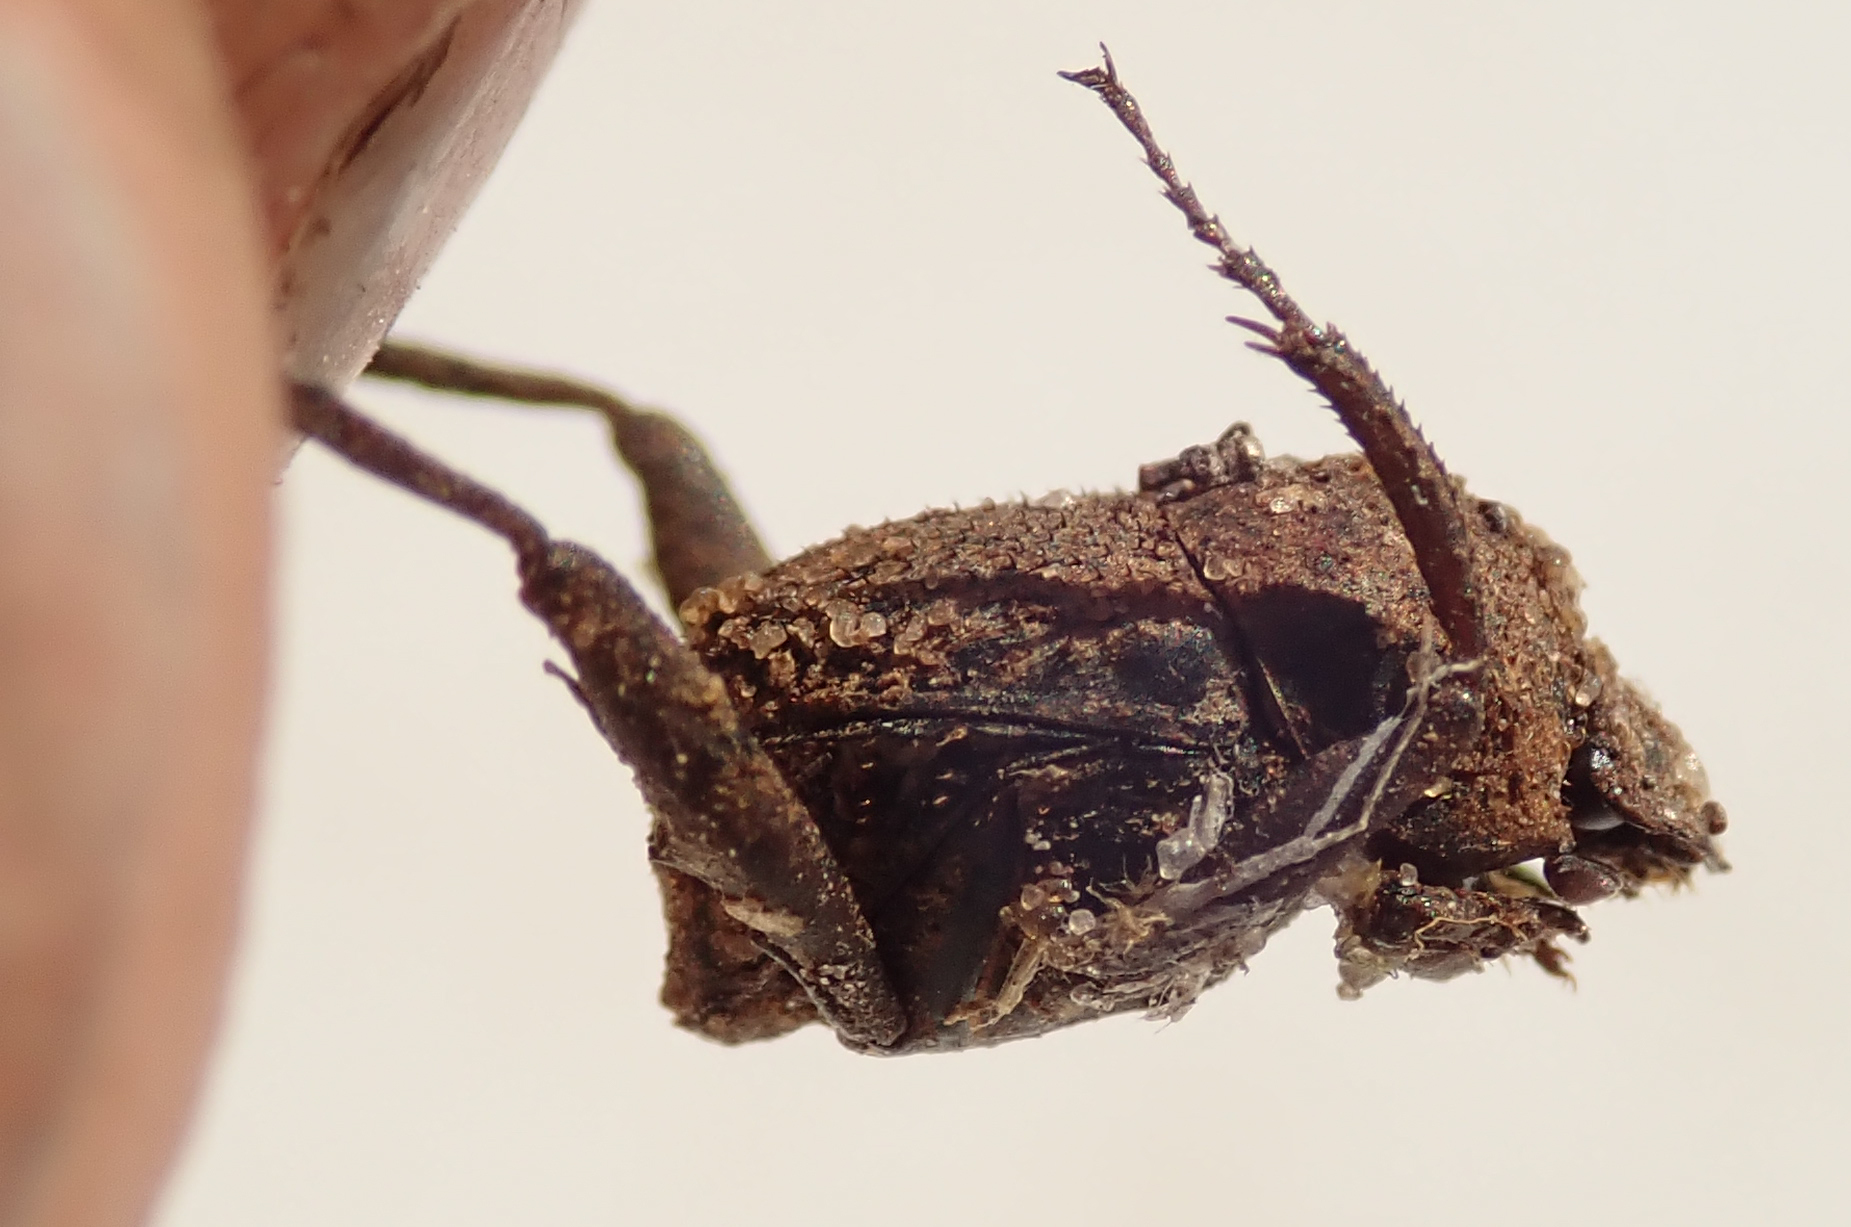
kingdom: Animalia
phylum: Arthropoda
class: Insecta
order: Coleoptera
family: Scarabaeidae
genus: Sisyphus
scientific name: Sisyphus calcaratus
